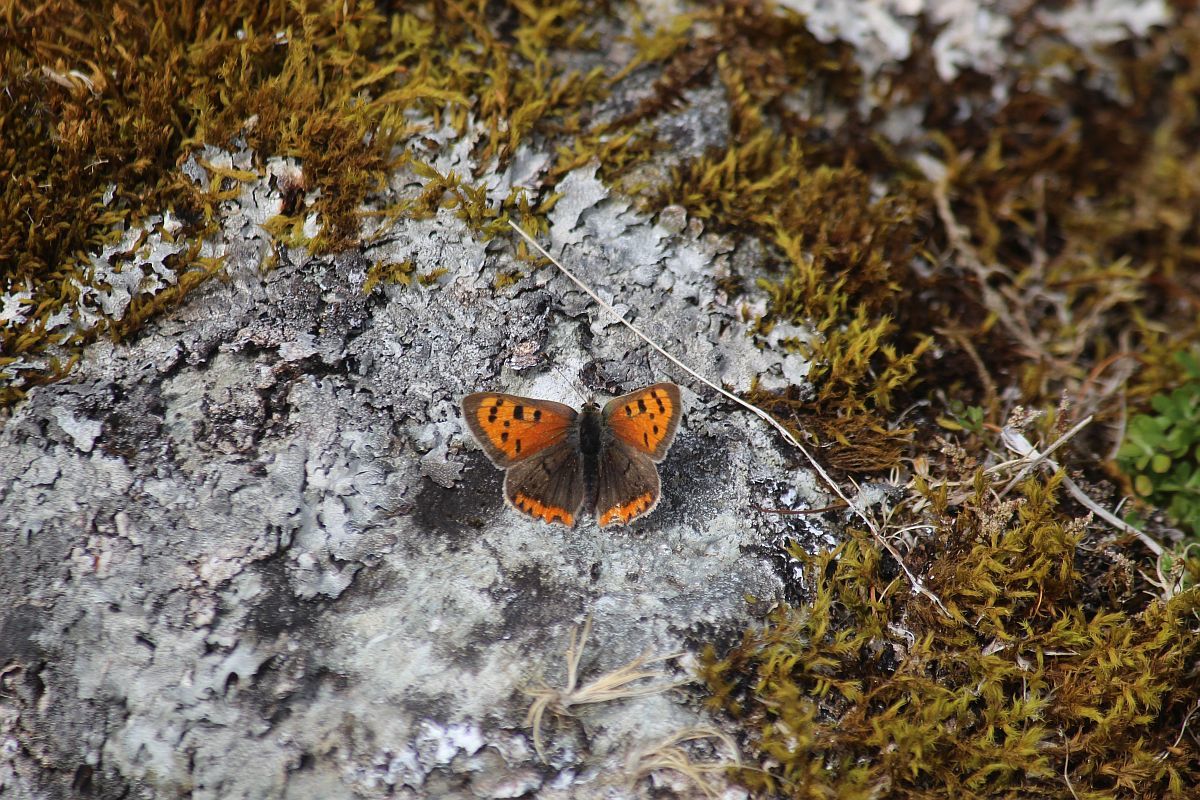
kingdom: Animalia
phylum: Arthropoda
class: Insecta
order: Lepidoptera
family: Lycaenidae
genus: Lycaena
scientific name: Lycaena phlaeas
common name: Small copper
